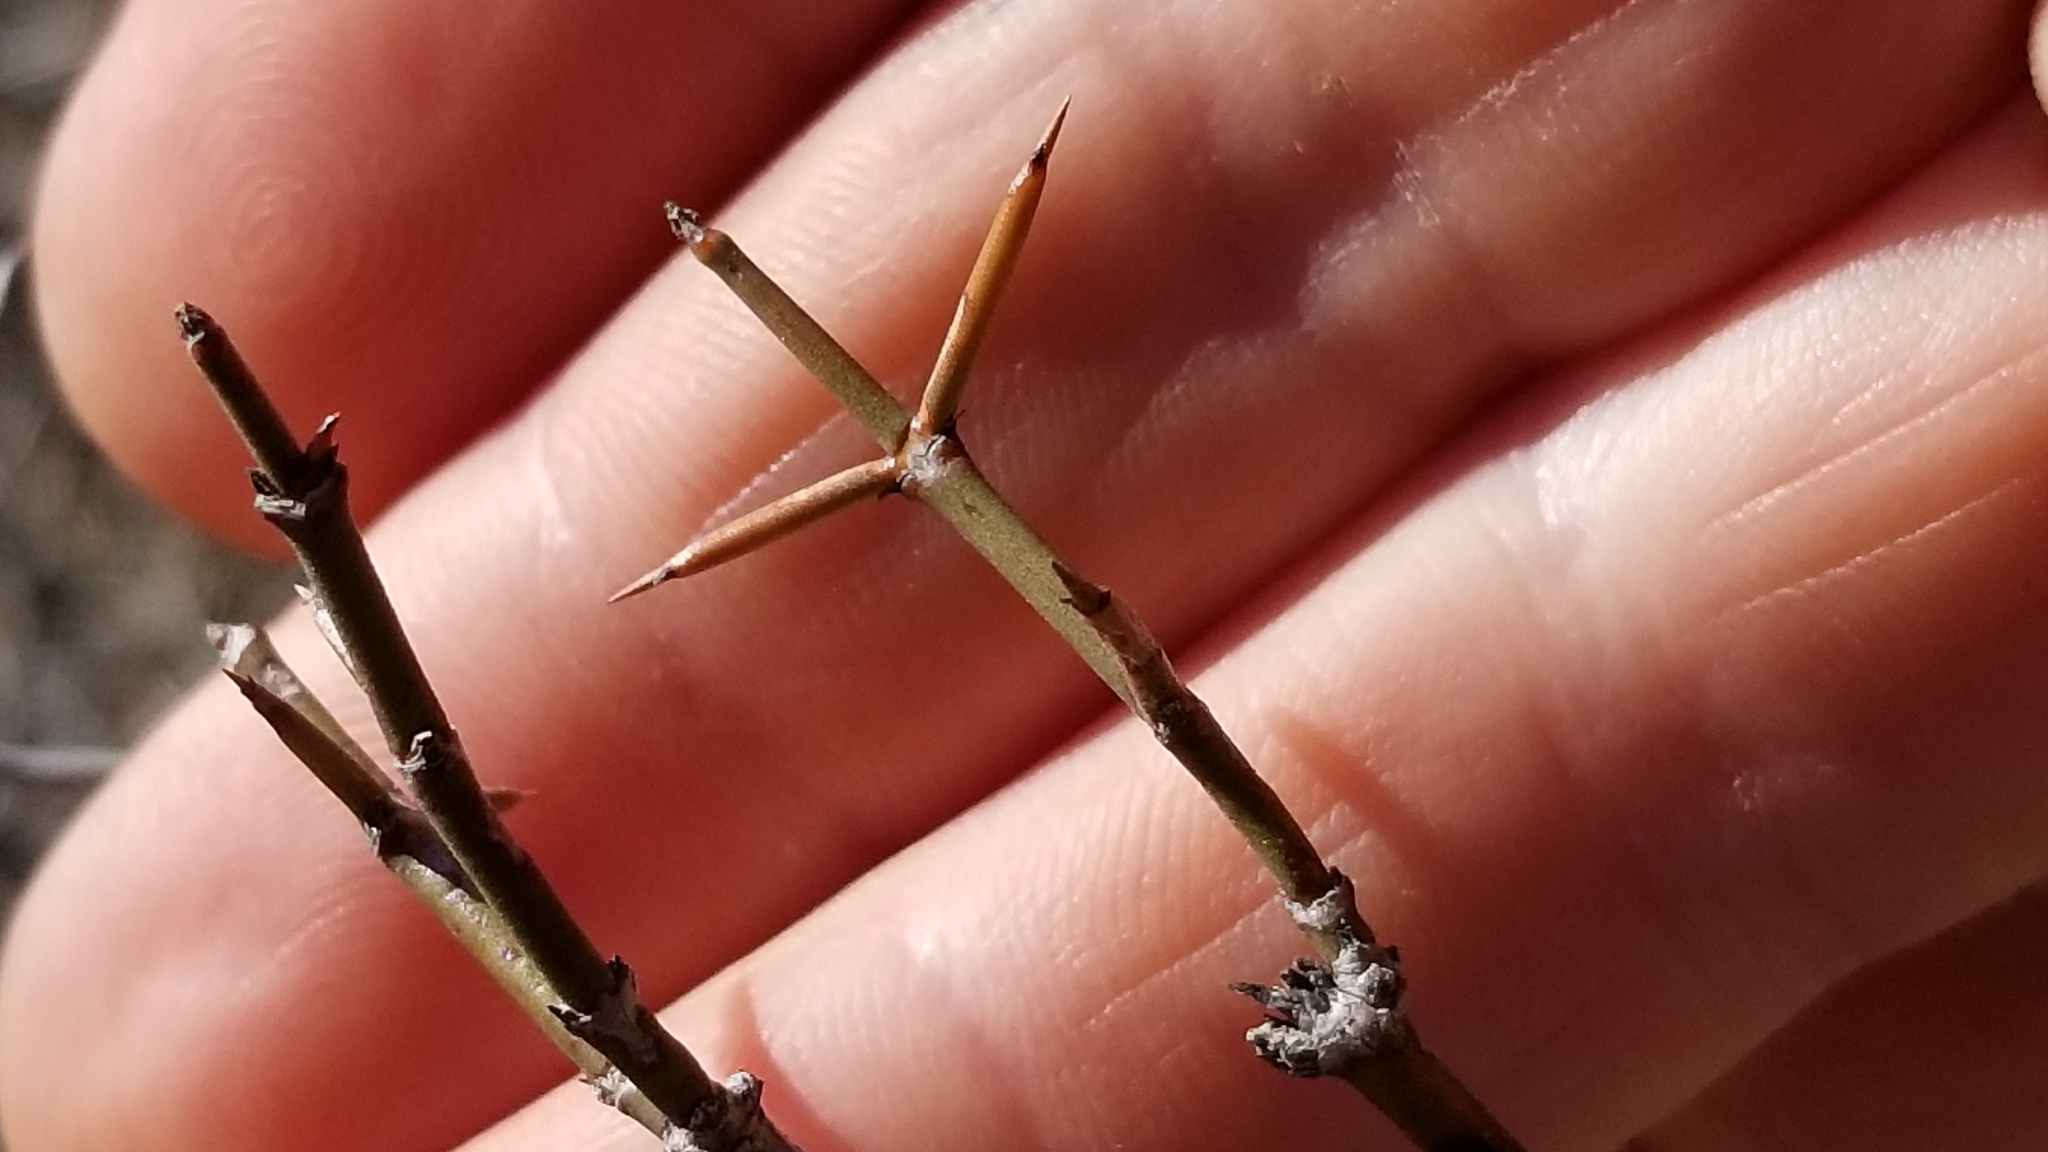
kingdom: Plantae
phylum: Tracheophyta
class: Magnoliopsida
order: Rosales
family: Rhamnaceae
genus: Discaria
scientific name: Discaria toumatou
